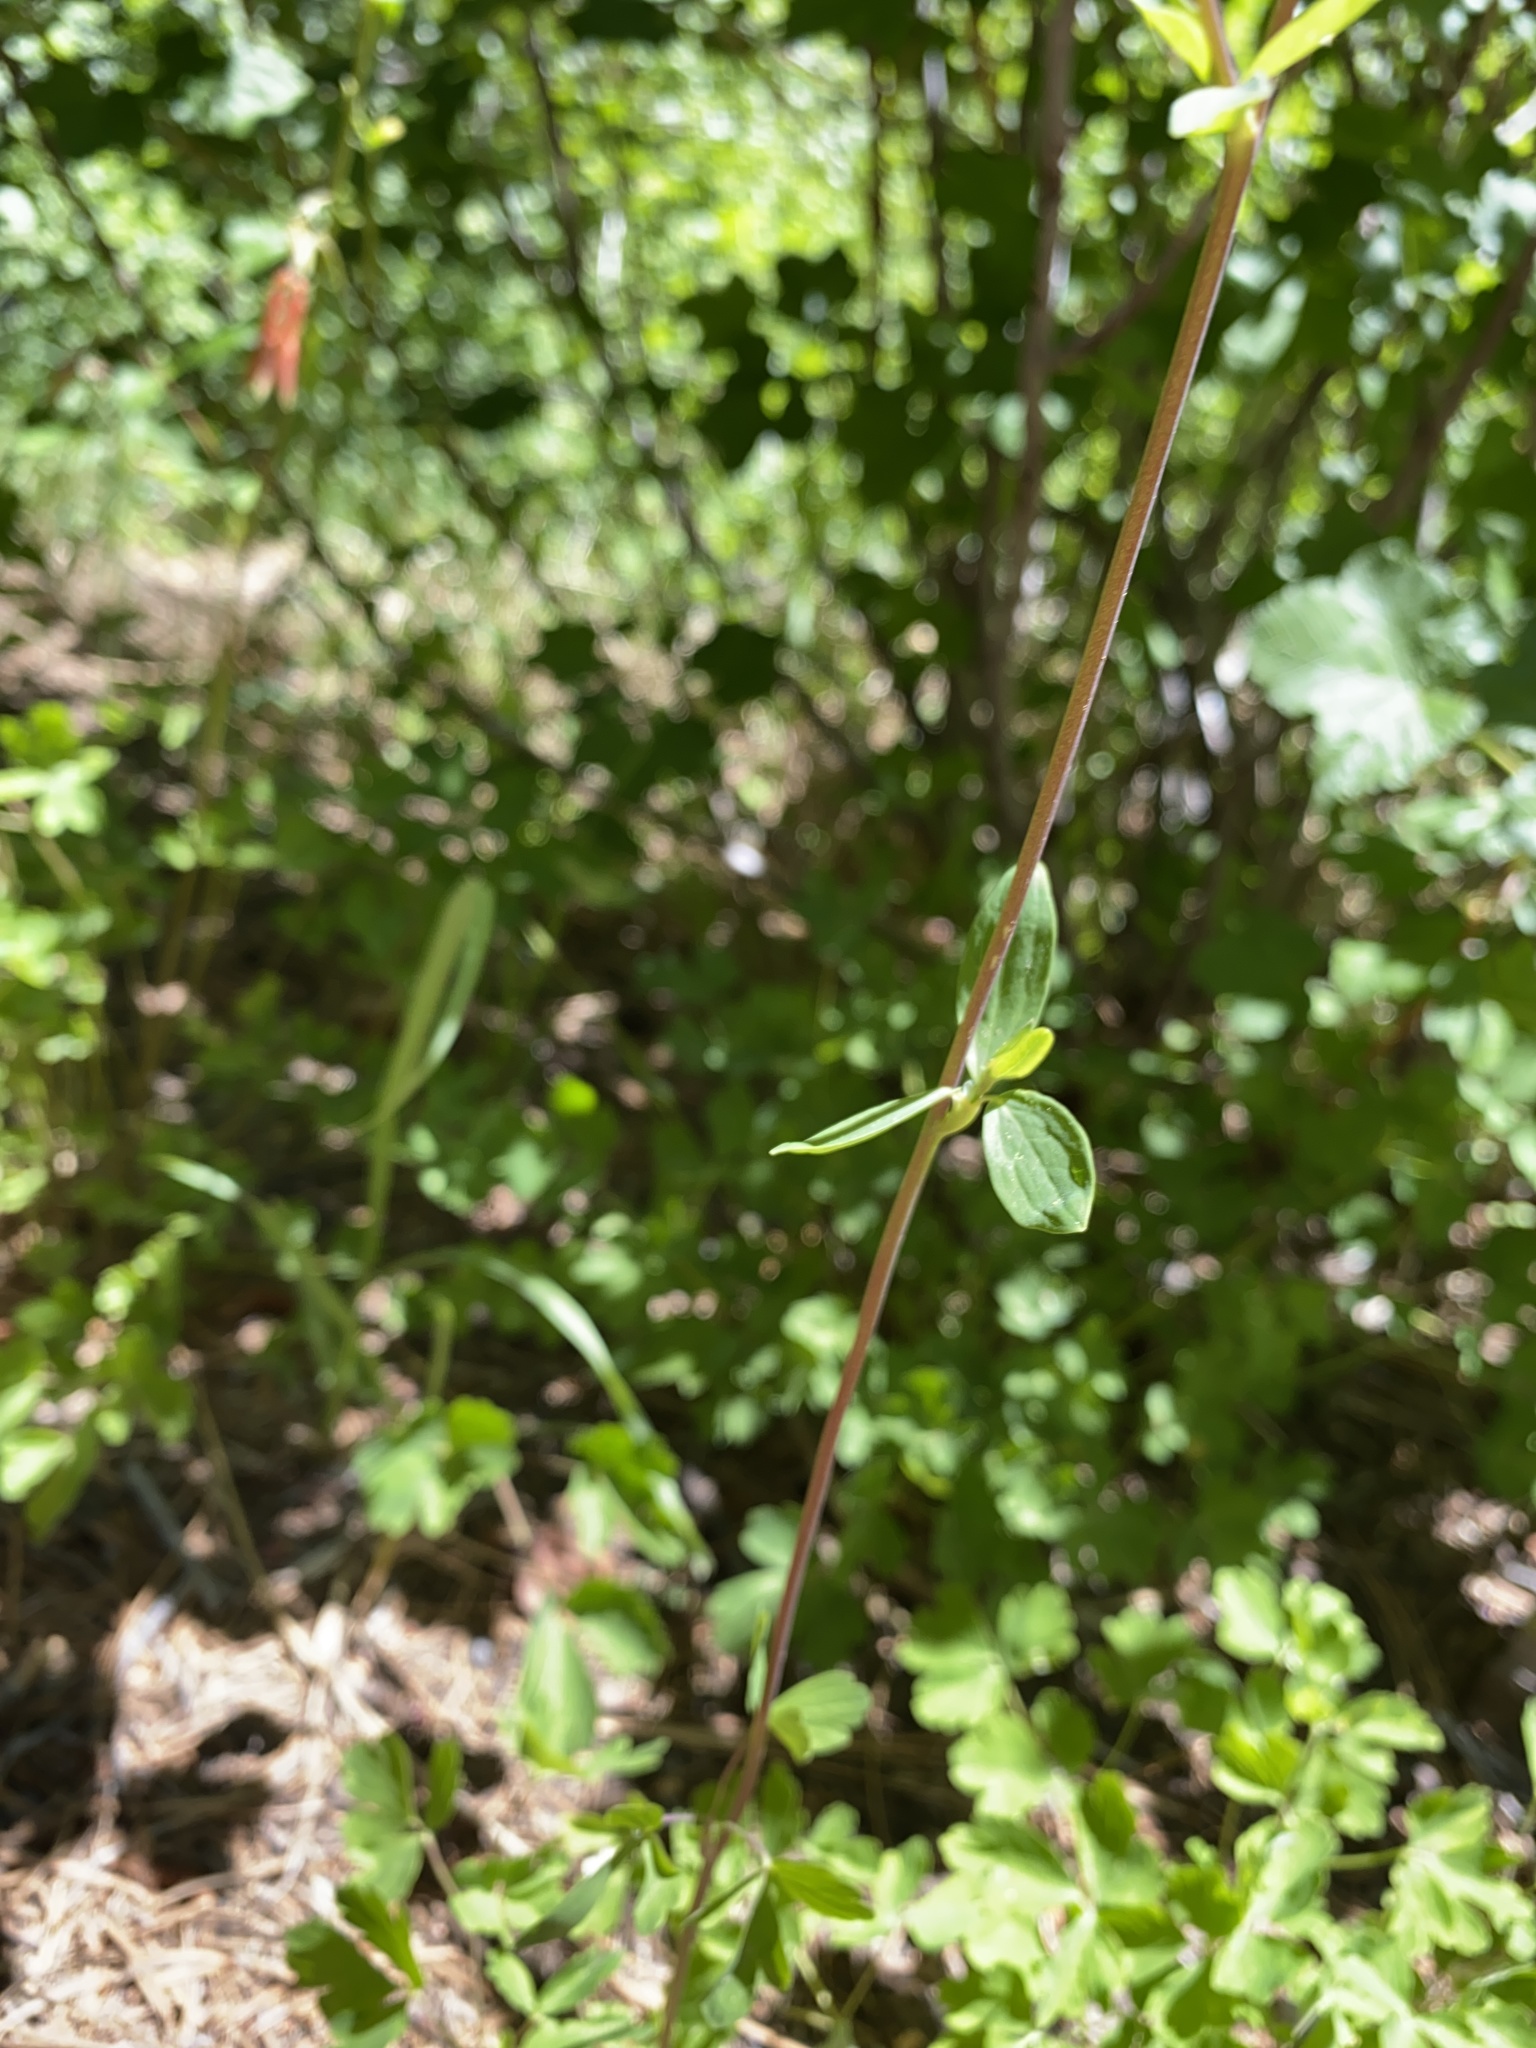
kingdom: Plantae
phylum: Tracheophyta
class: Magnoliopsida
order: Ranunculales
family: Ranunculaceae
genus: Aquilegia
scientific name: Aquilegia formosa
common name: Sitka columbine
